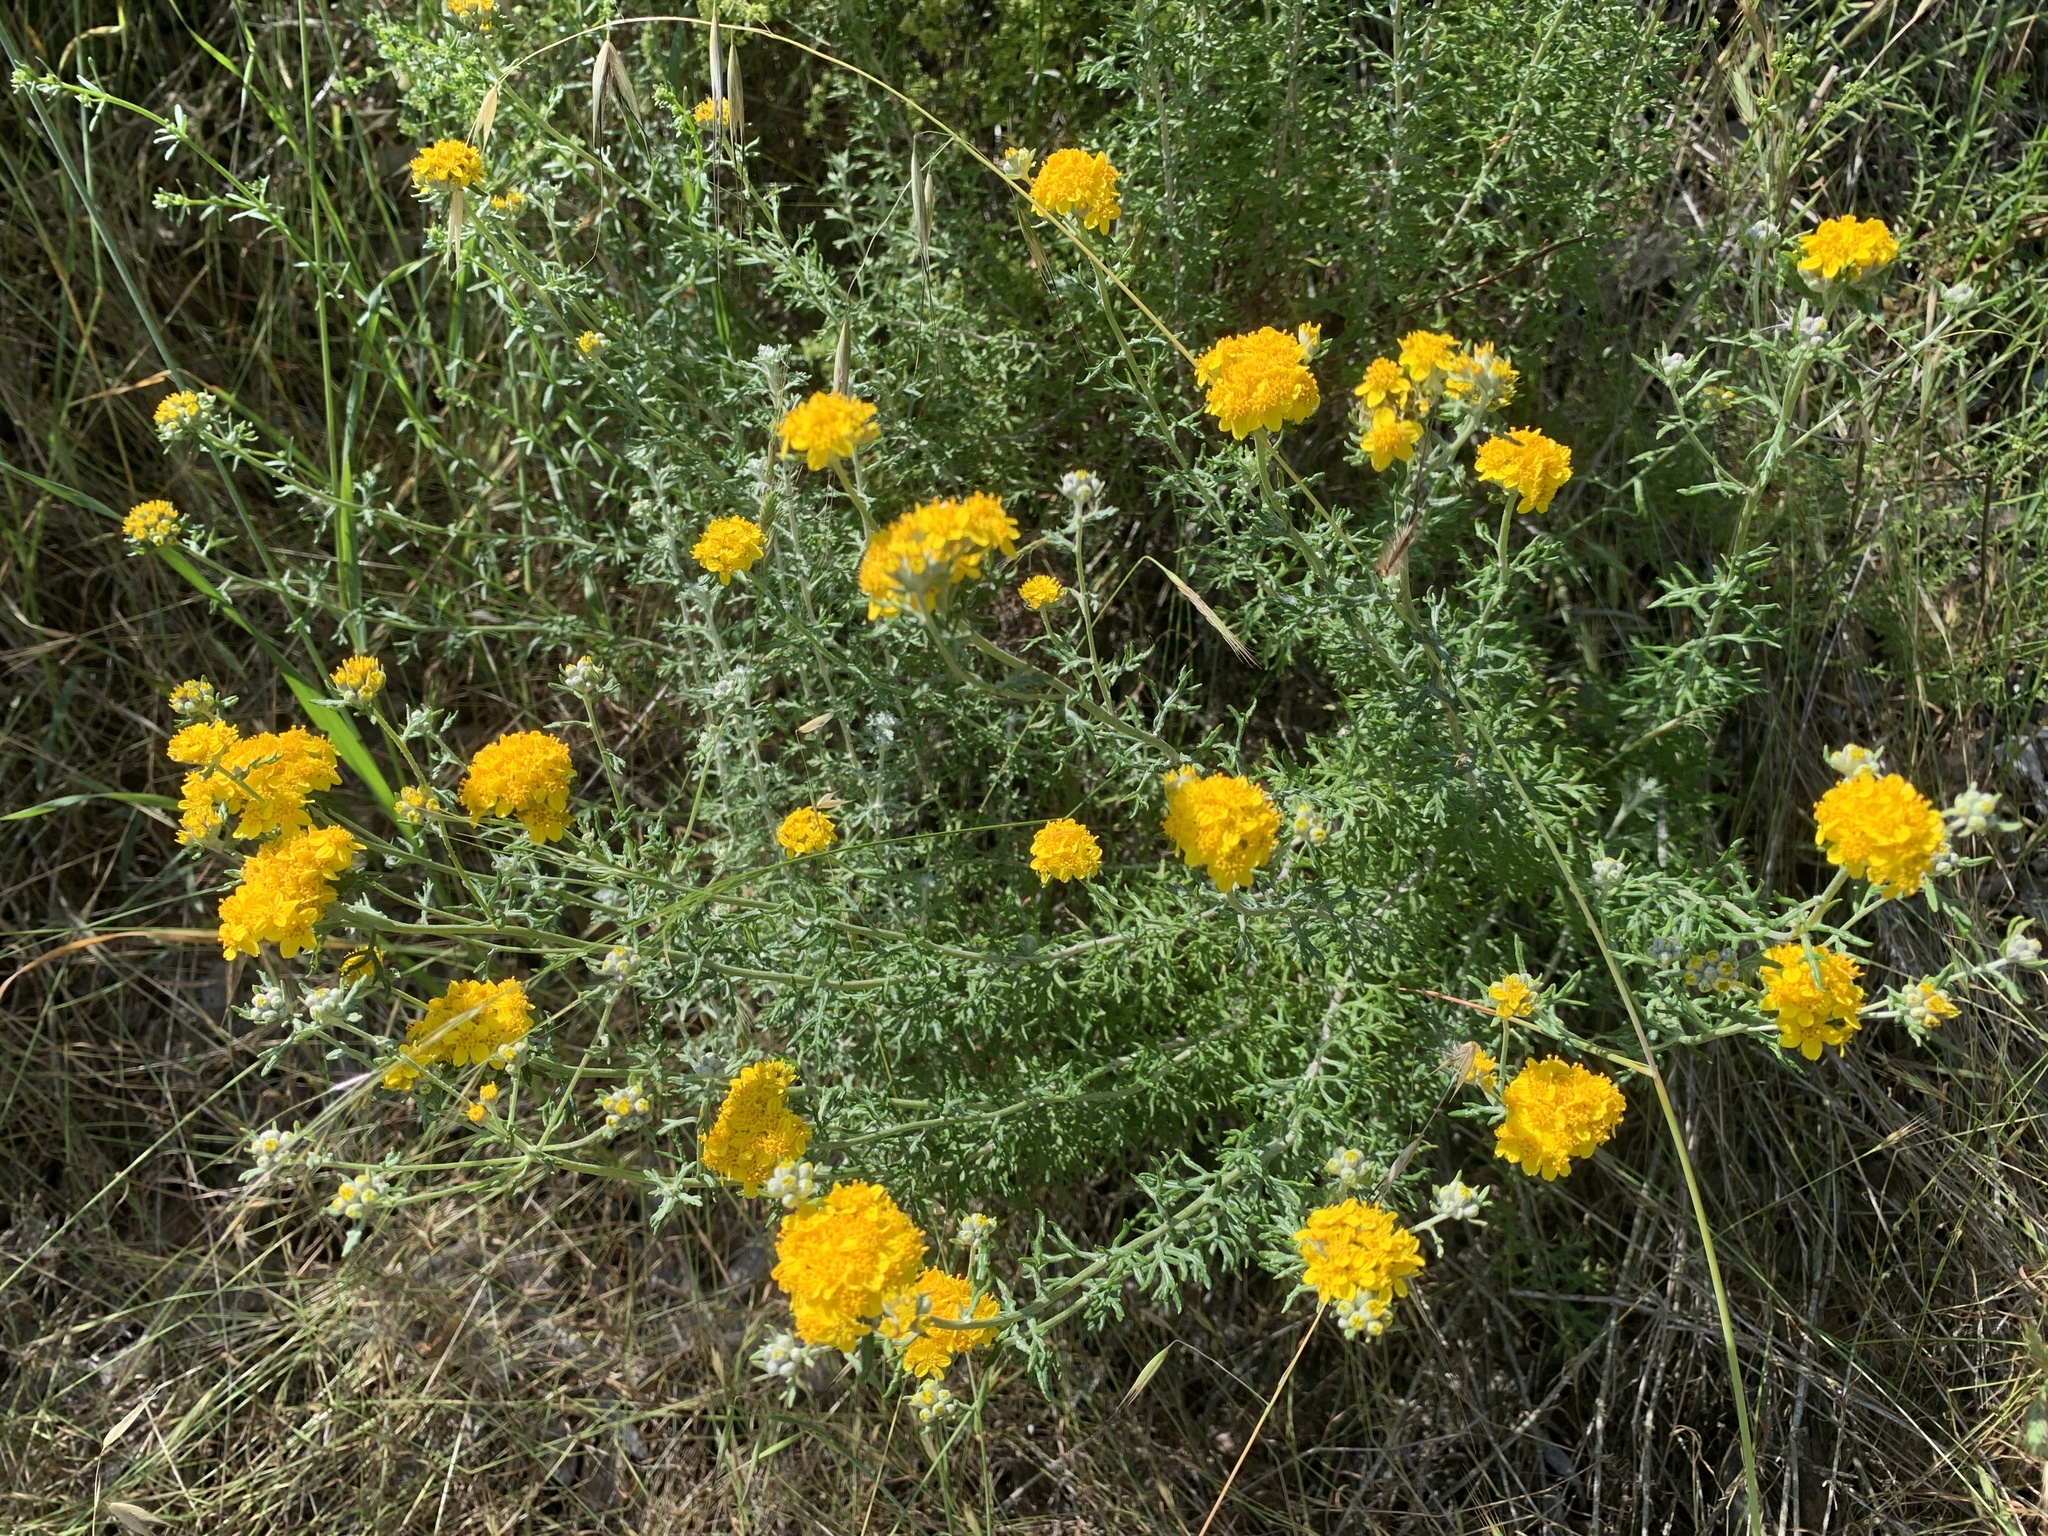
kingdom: Plantae
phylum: Tracheophyta
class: Magnoliopsida
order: Asterales
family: Asteraceae
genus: Eriophyllum
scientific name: Eriophyllum confertiflorum
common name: Golden-yarrow
